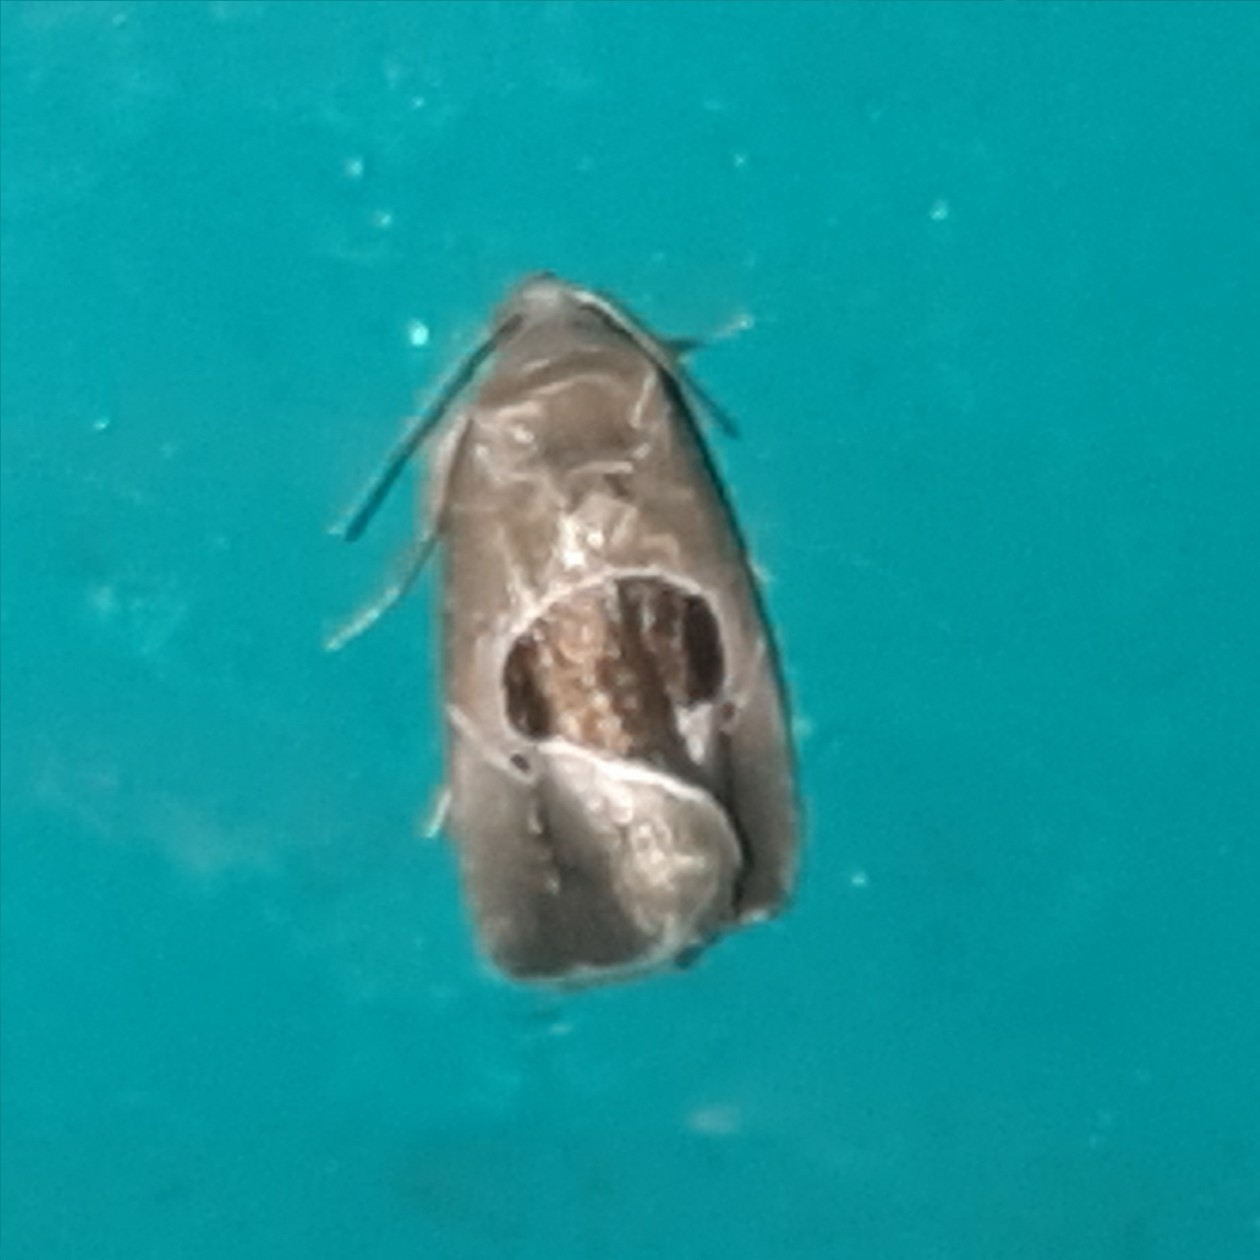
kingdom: Animalia
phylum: Arthropoda
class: Insecta
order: Lepidoptera
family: Noctuidae
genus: Elaphria
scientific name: Elaphria deltoides
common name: Cutworm moth
